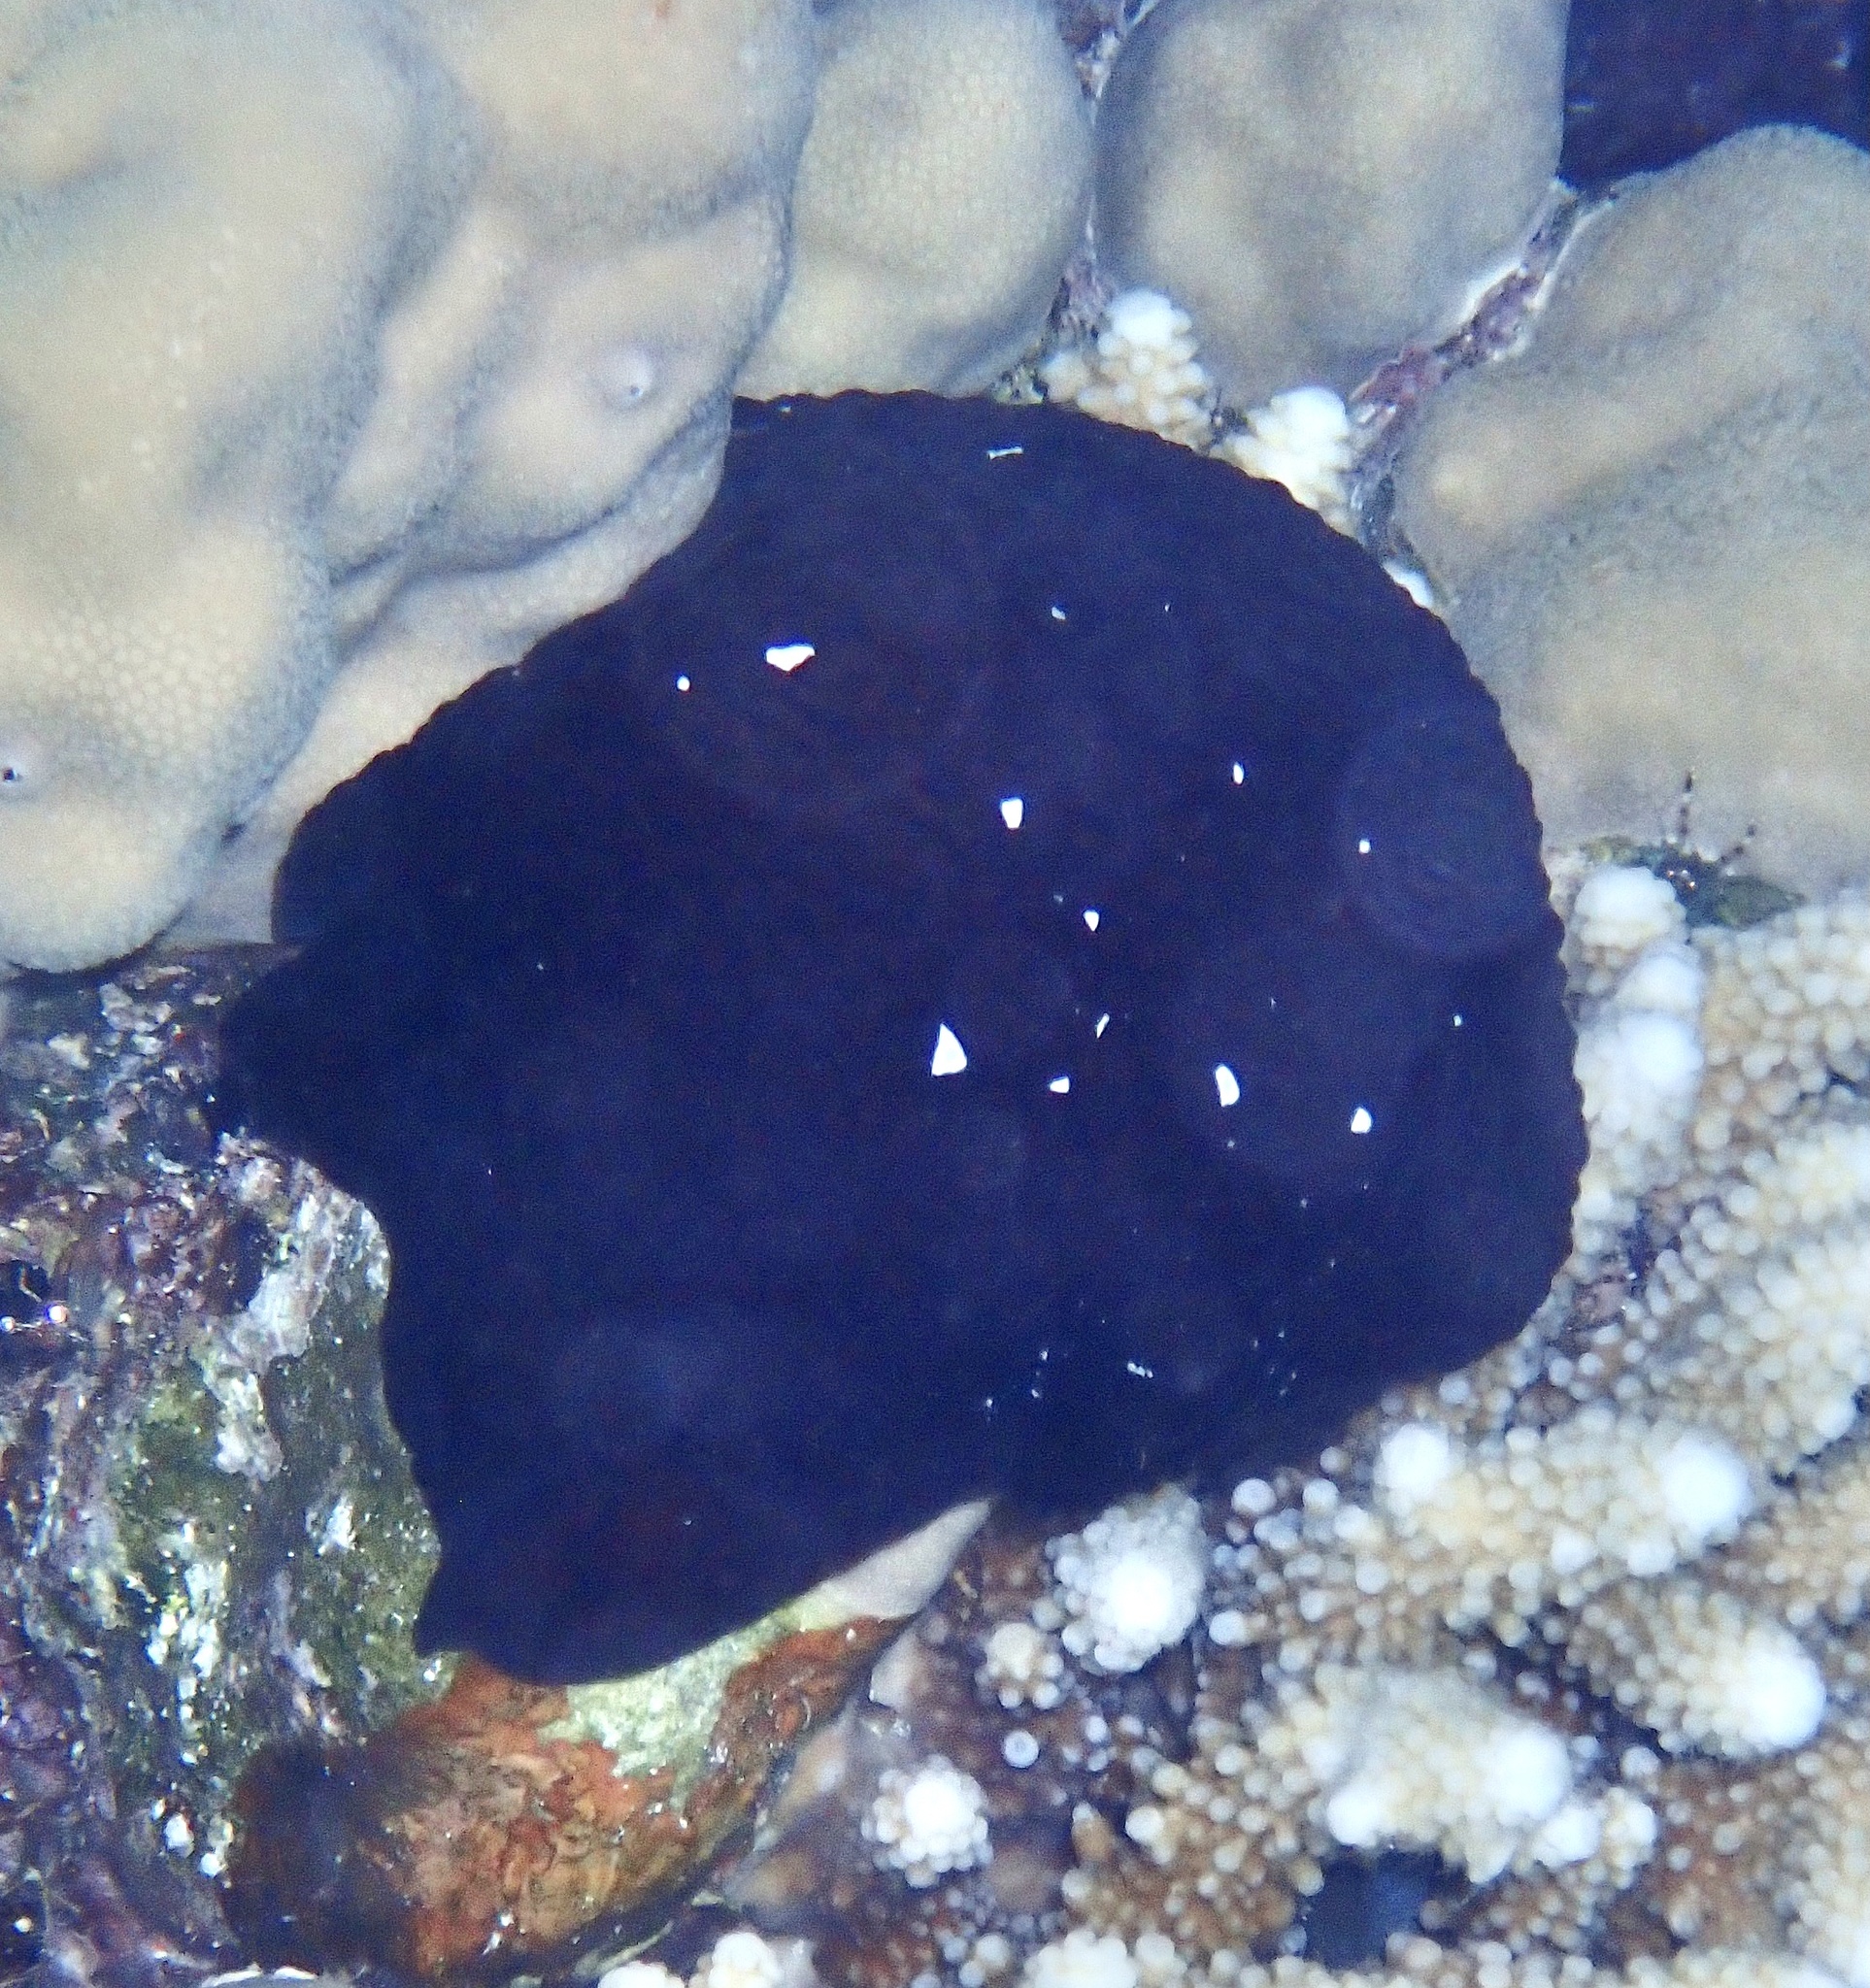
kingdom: Animalia
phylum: Mollusca
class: Gastropoda
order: Pleurobranchida
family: Pleurobranchidae
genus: Pleurobranchus
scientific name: Pleurobranchus grandis
